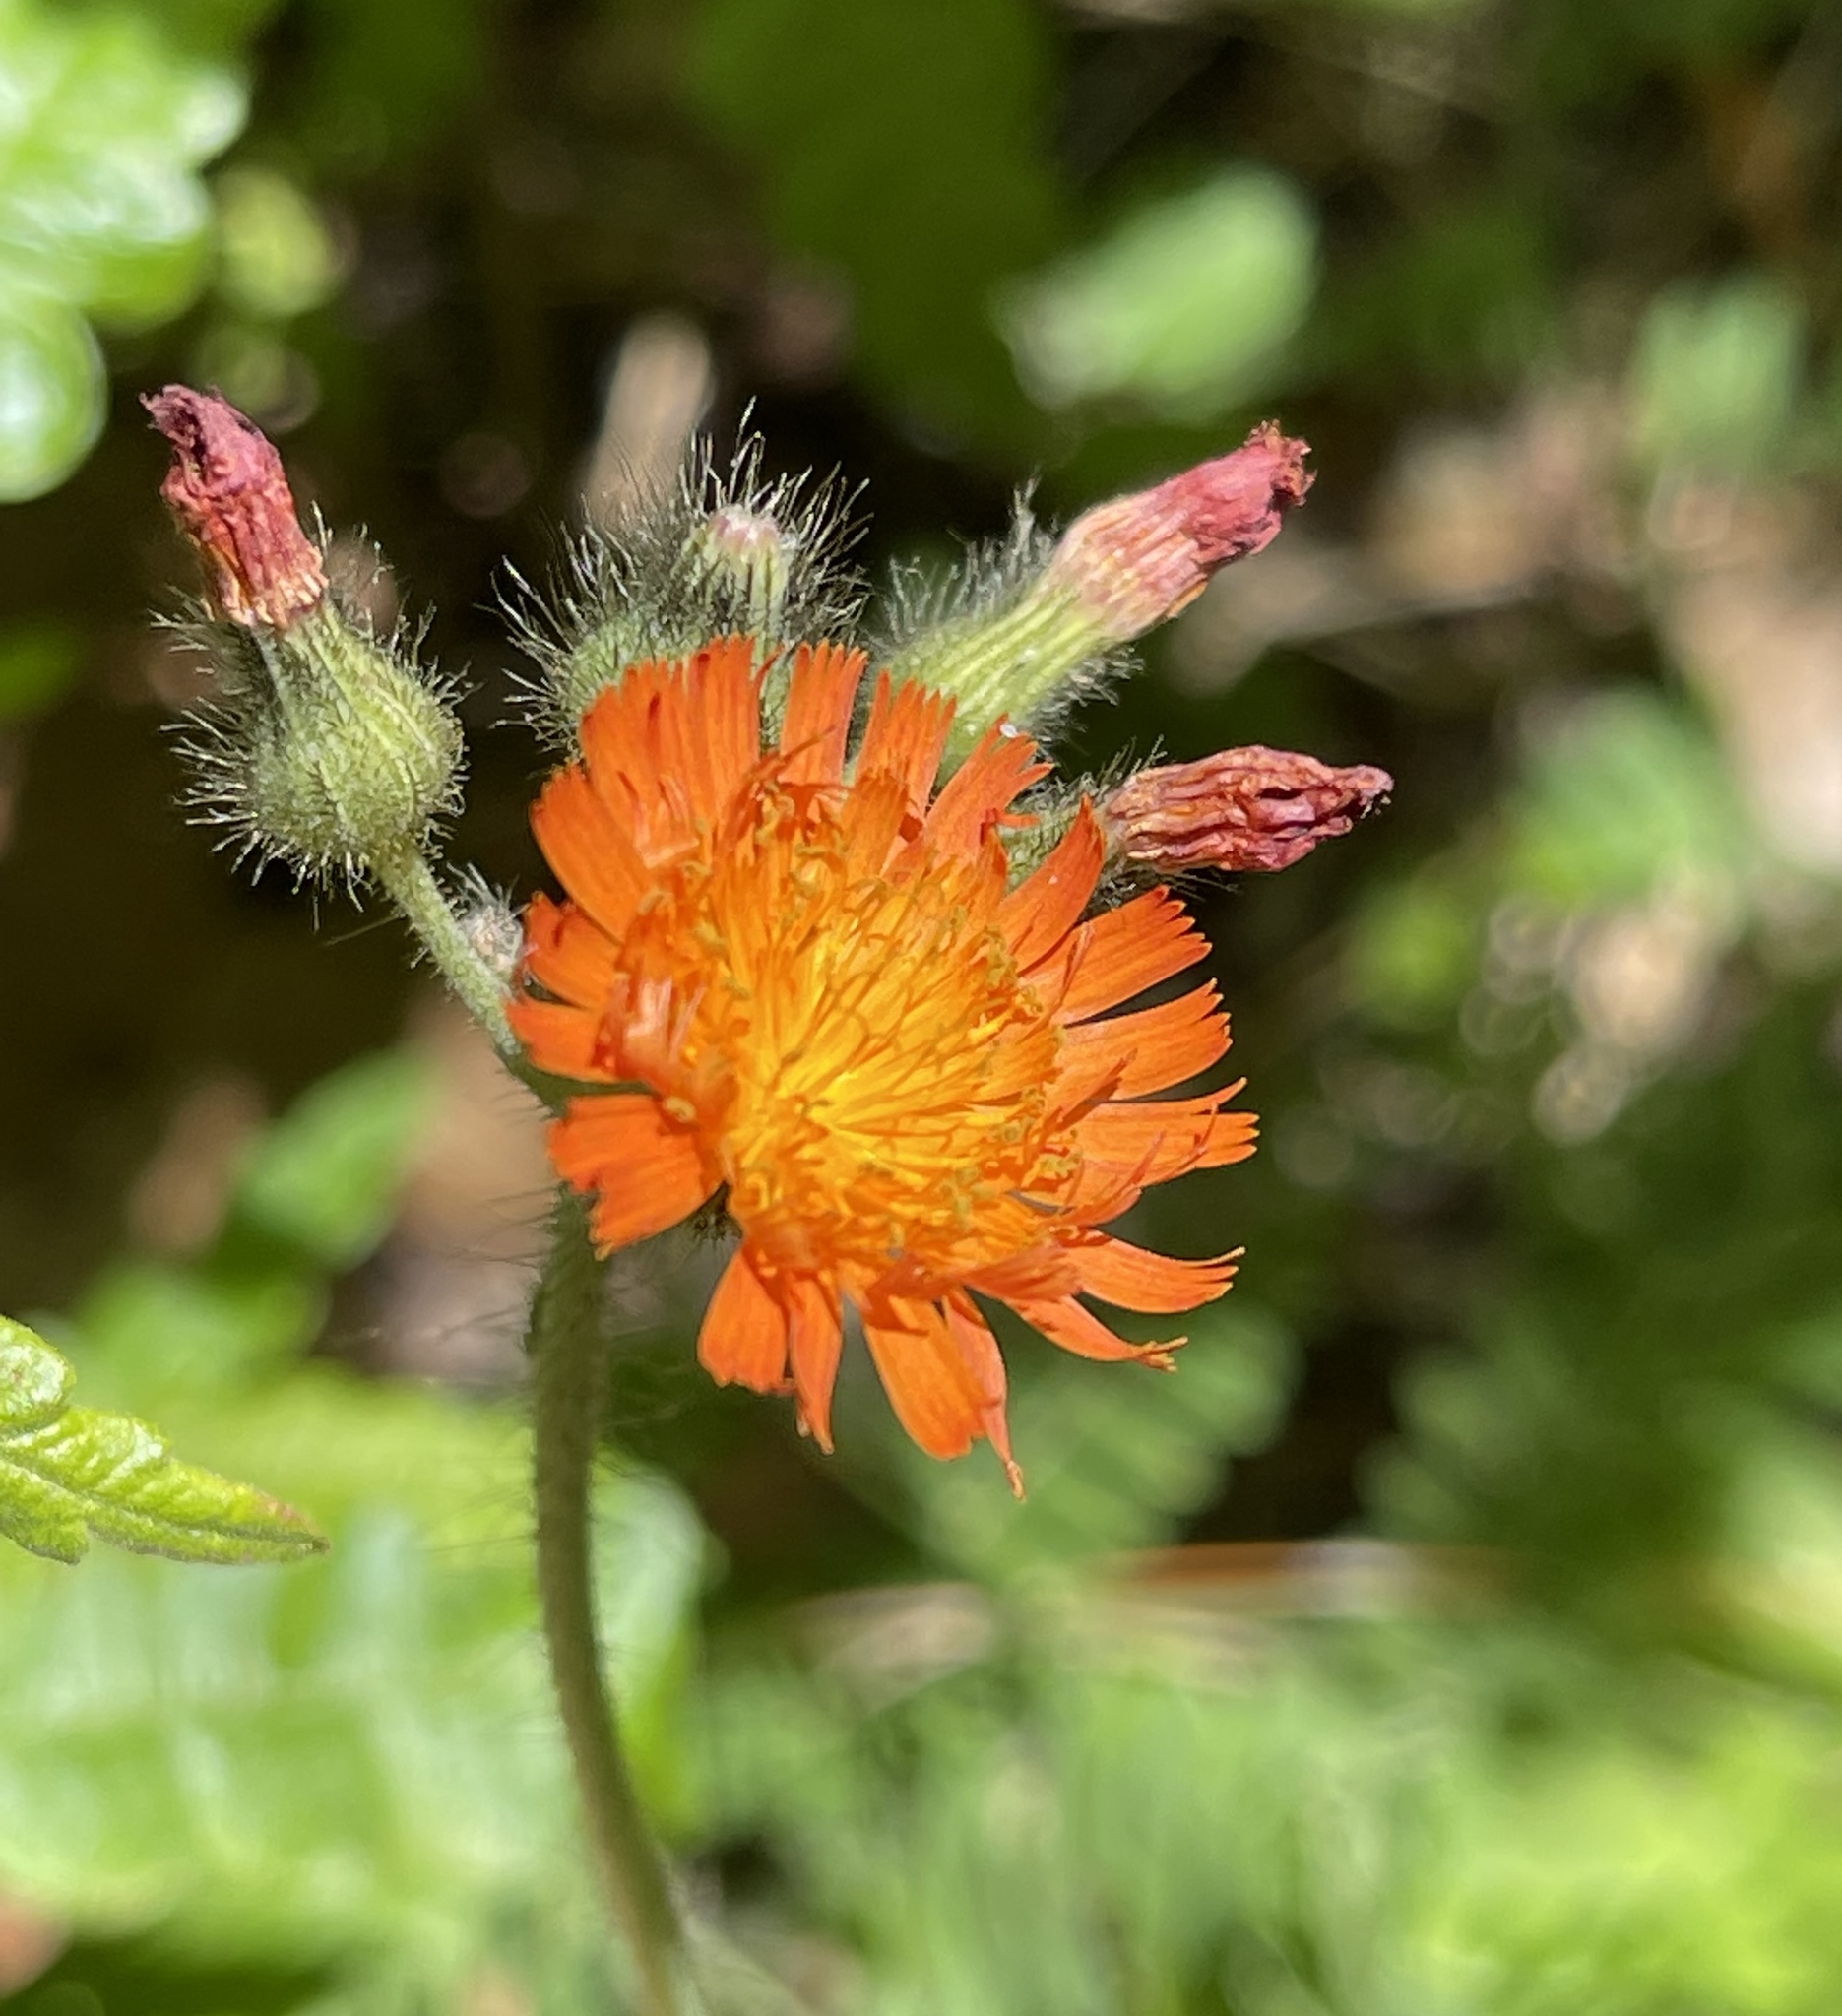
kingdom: Plantae
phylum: Tracheophyta
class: Magnoliopsida
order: Asterales
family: Asteraceae
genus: Pilosella
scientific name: Pilosella aurantiaca
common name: Fox-and-cubs
